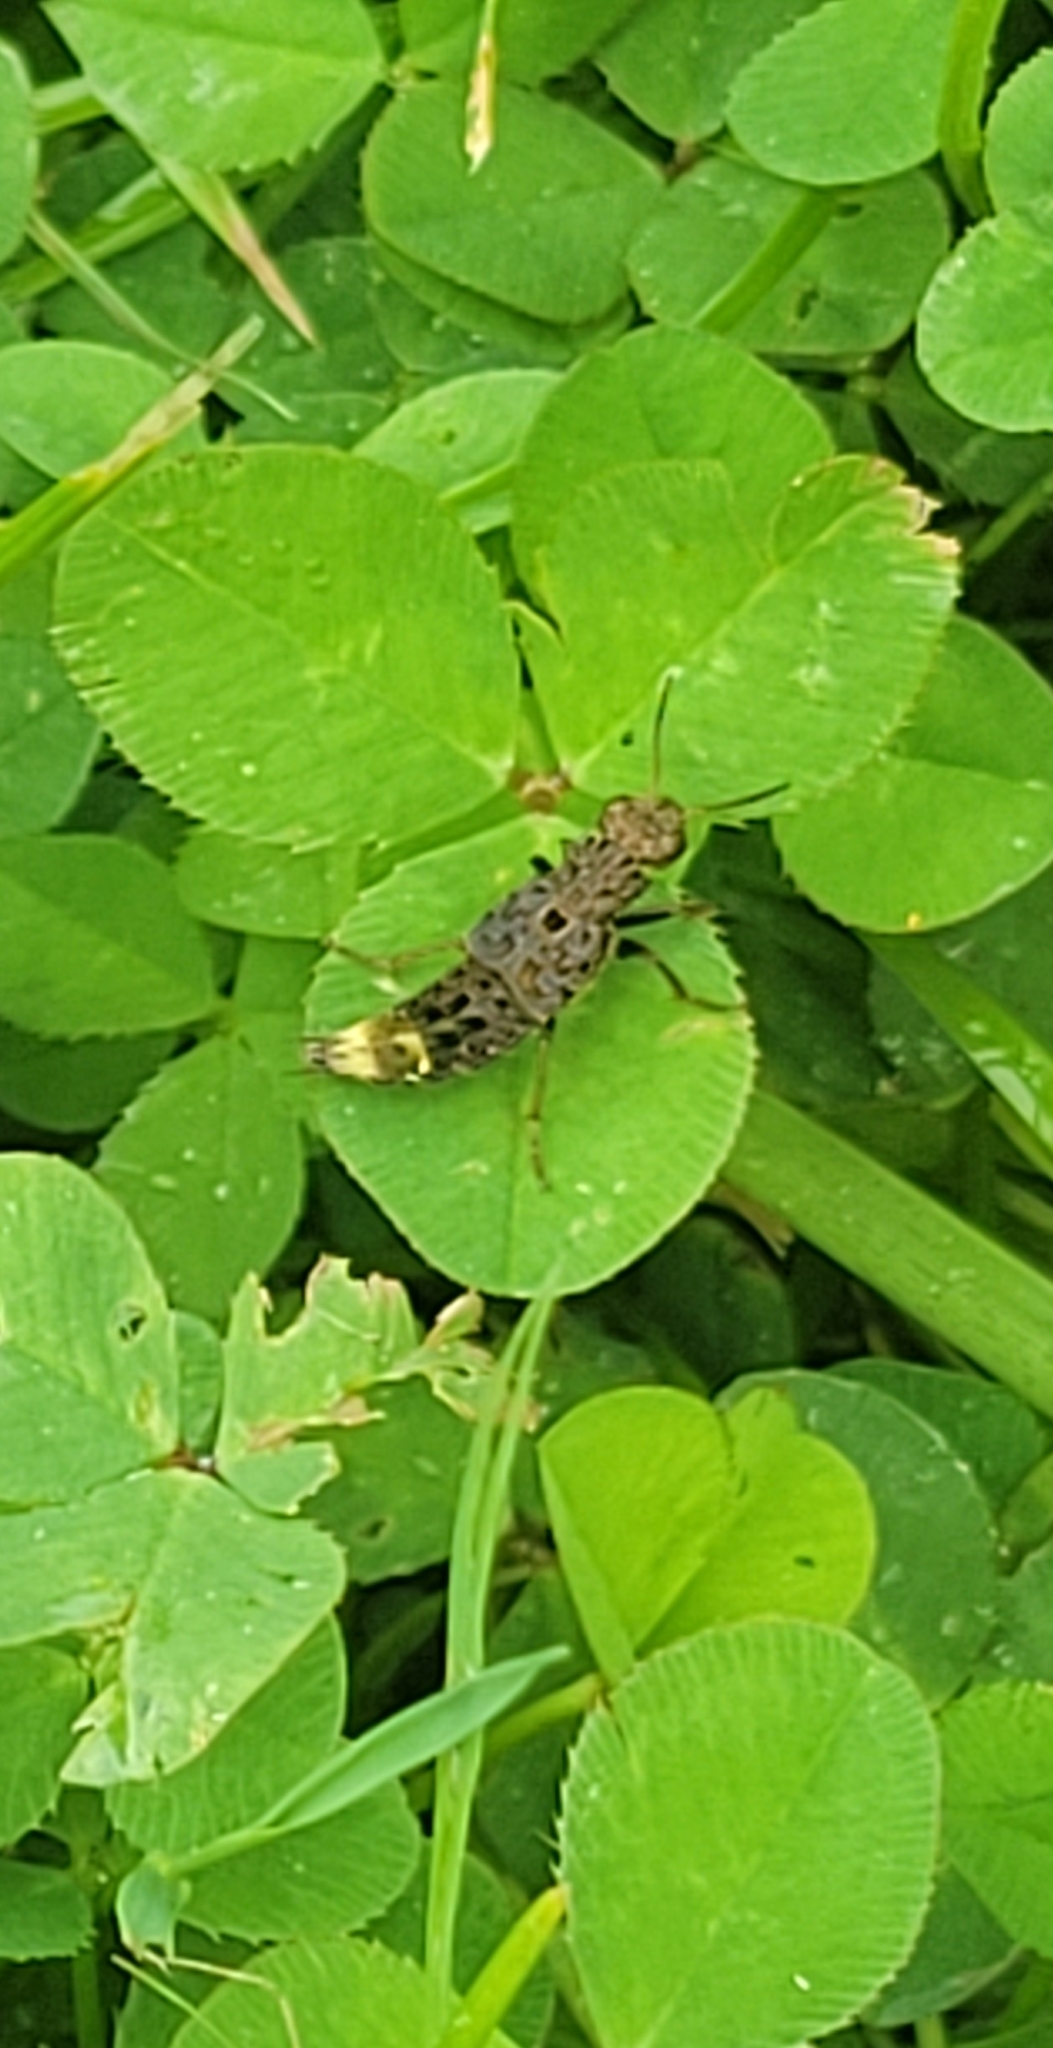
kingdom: Animalia
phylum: Arthropoda
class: Insecta
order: Coleoptera
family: Staphylinidae
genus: Ontholestes
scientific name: Ontholestes cingulatus
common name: Gold-and-brown rove beetle
